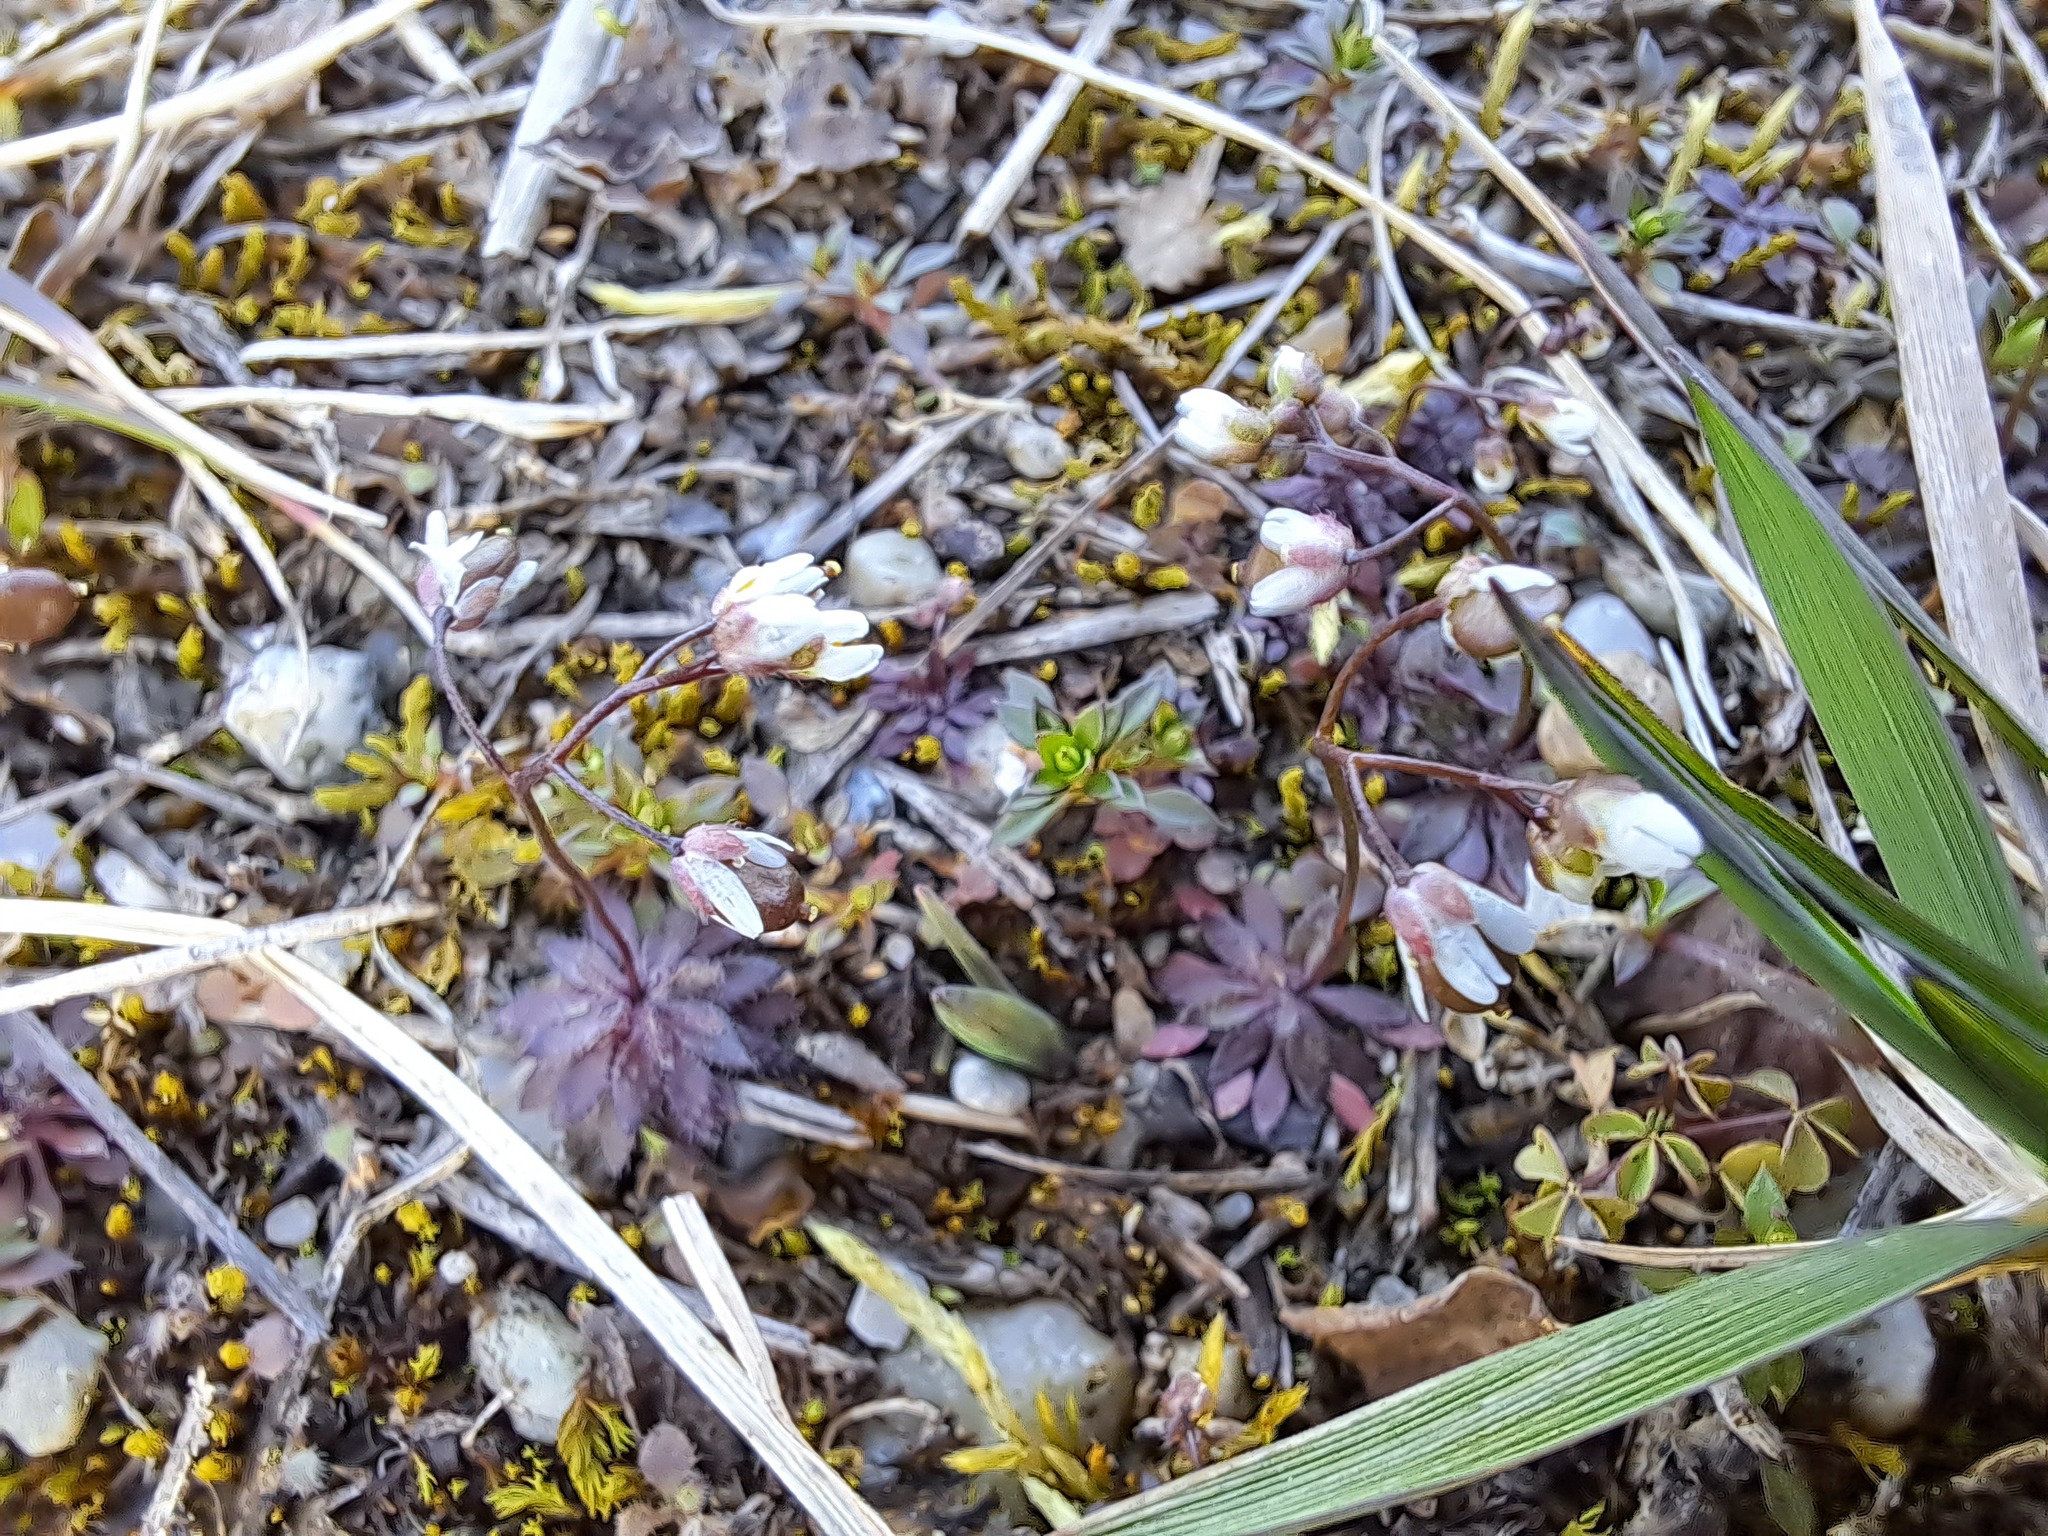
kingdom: Plantae
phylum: Tracheophyta
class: Magnoliopsida
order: Brassicales
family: Brassicaceae
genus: Draba
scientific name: Draba verna
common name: Spring draba
